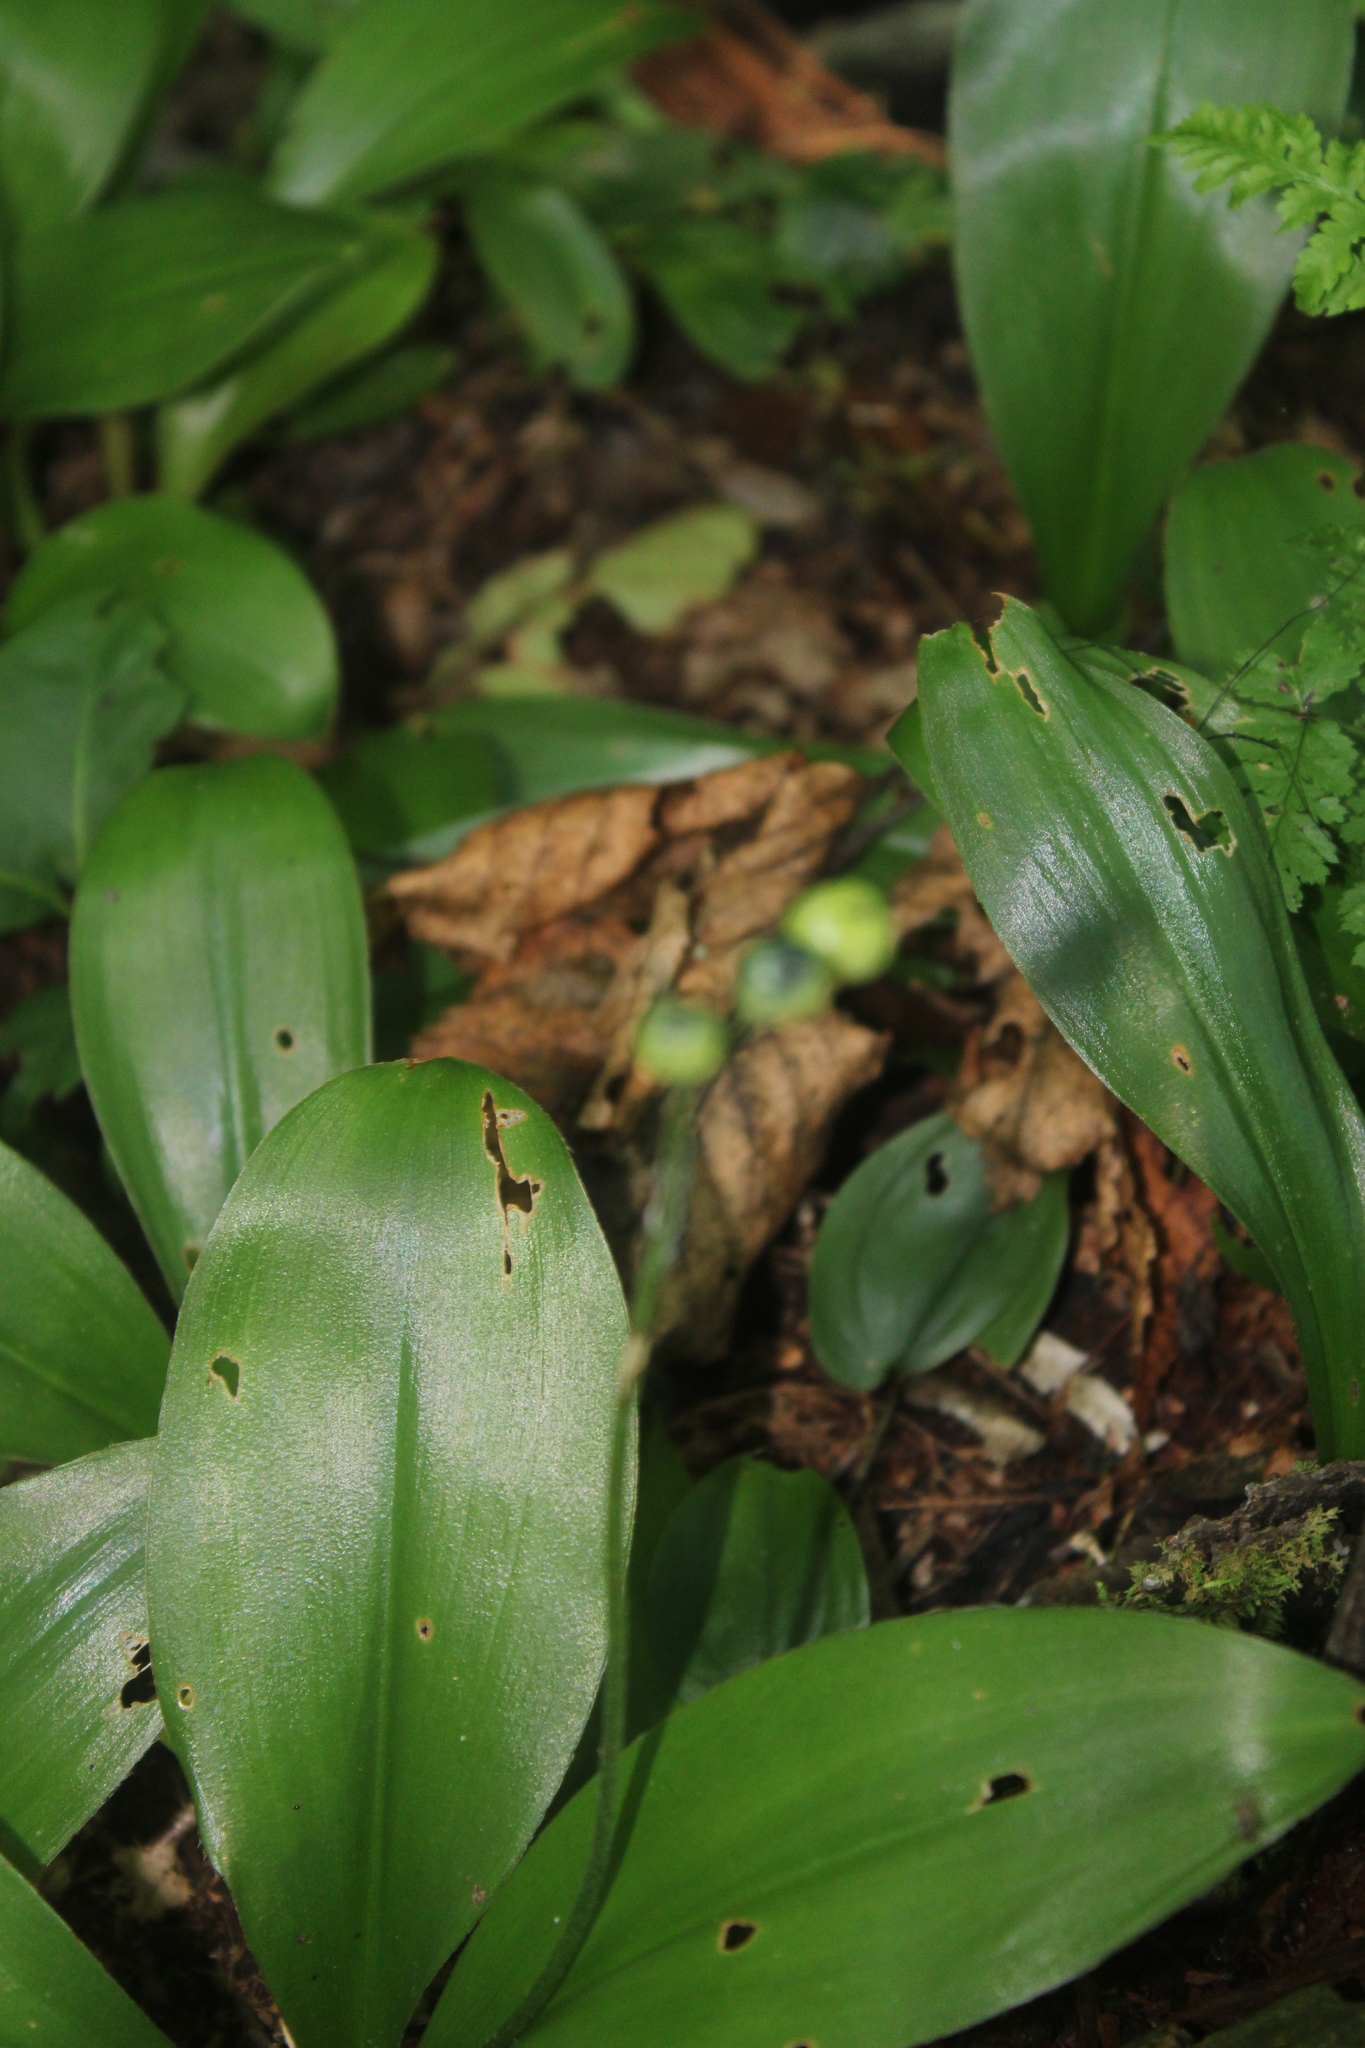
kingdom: Plantae
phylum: Tracheophyta
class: Liliopsida
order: Liliales
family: Liliaceae
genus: Clintonia
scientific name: Clintonia borealis
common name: Yellow clintonia
